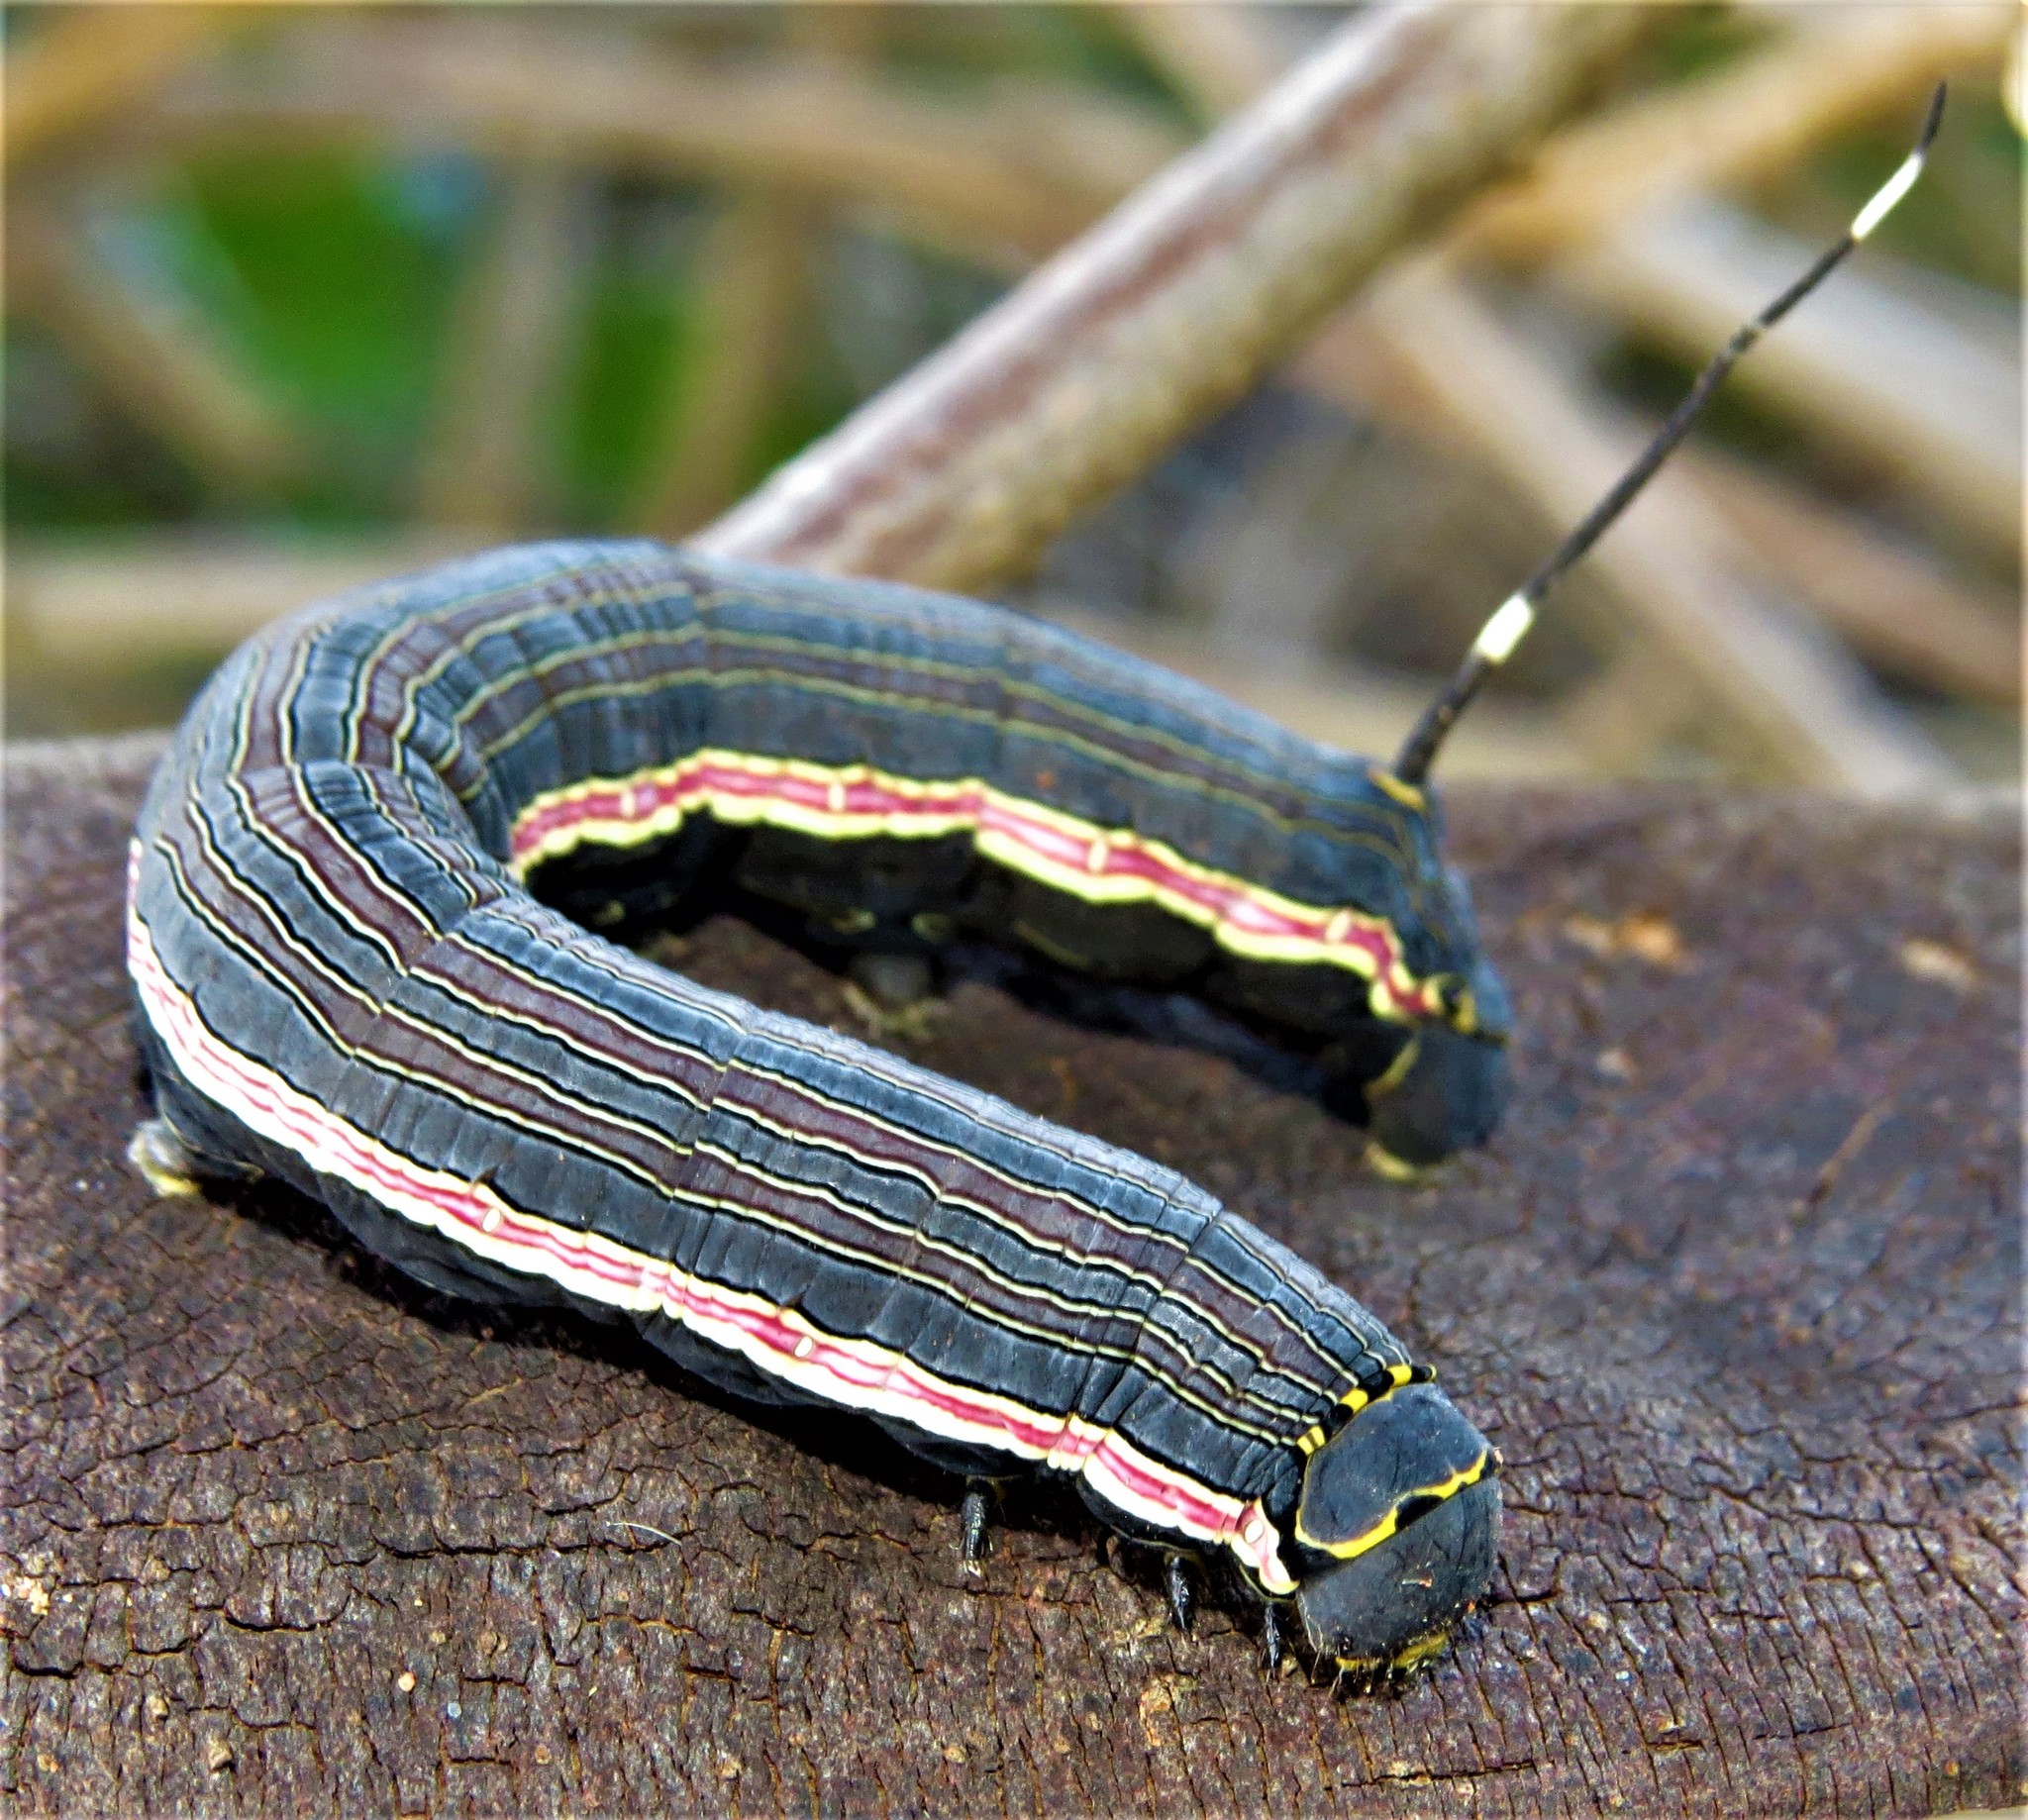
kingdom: Animalia
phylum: Arthropoda
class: Insecta
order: Lepidoptera
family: Sphingidae
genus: Isognathus
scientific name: Isognathus allamandae
